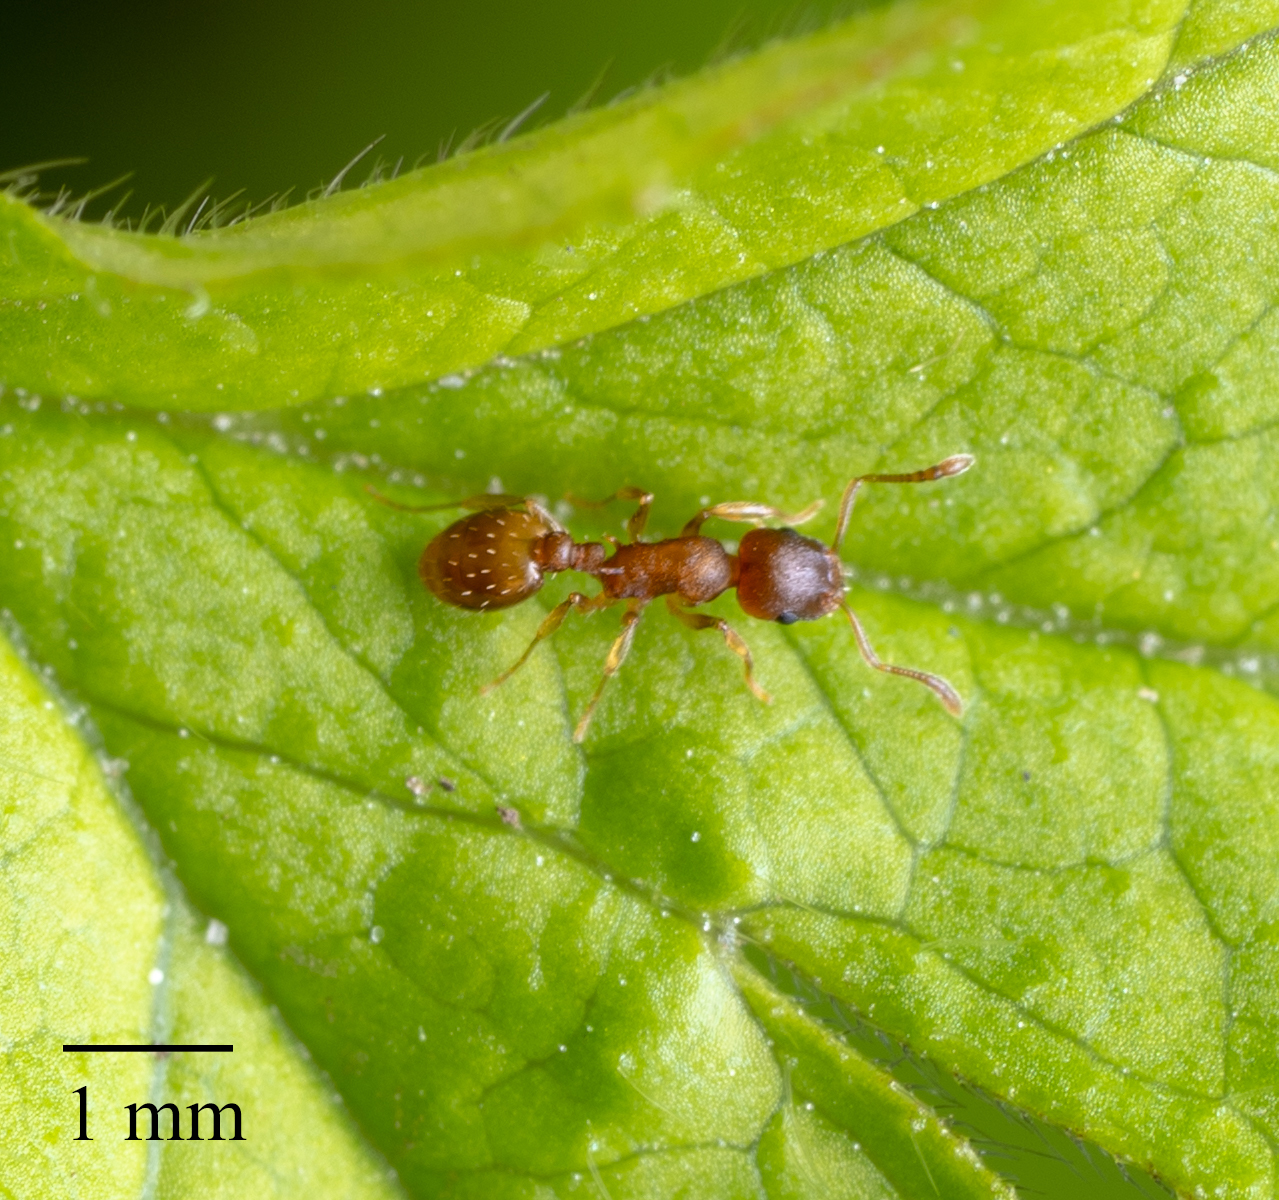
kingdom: Animalia
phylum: Arthropoda
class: Insecta
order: Hymenoptera
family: Formicidae
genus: Temnothorax
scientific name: Temnothorax ambiguus
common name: Doubtful acorn ant
